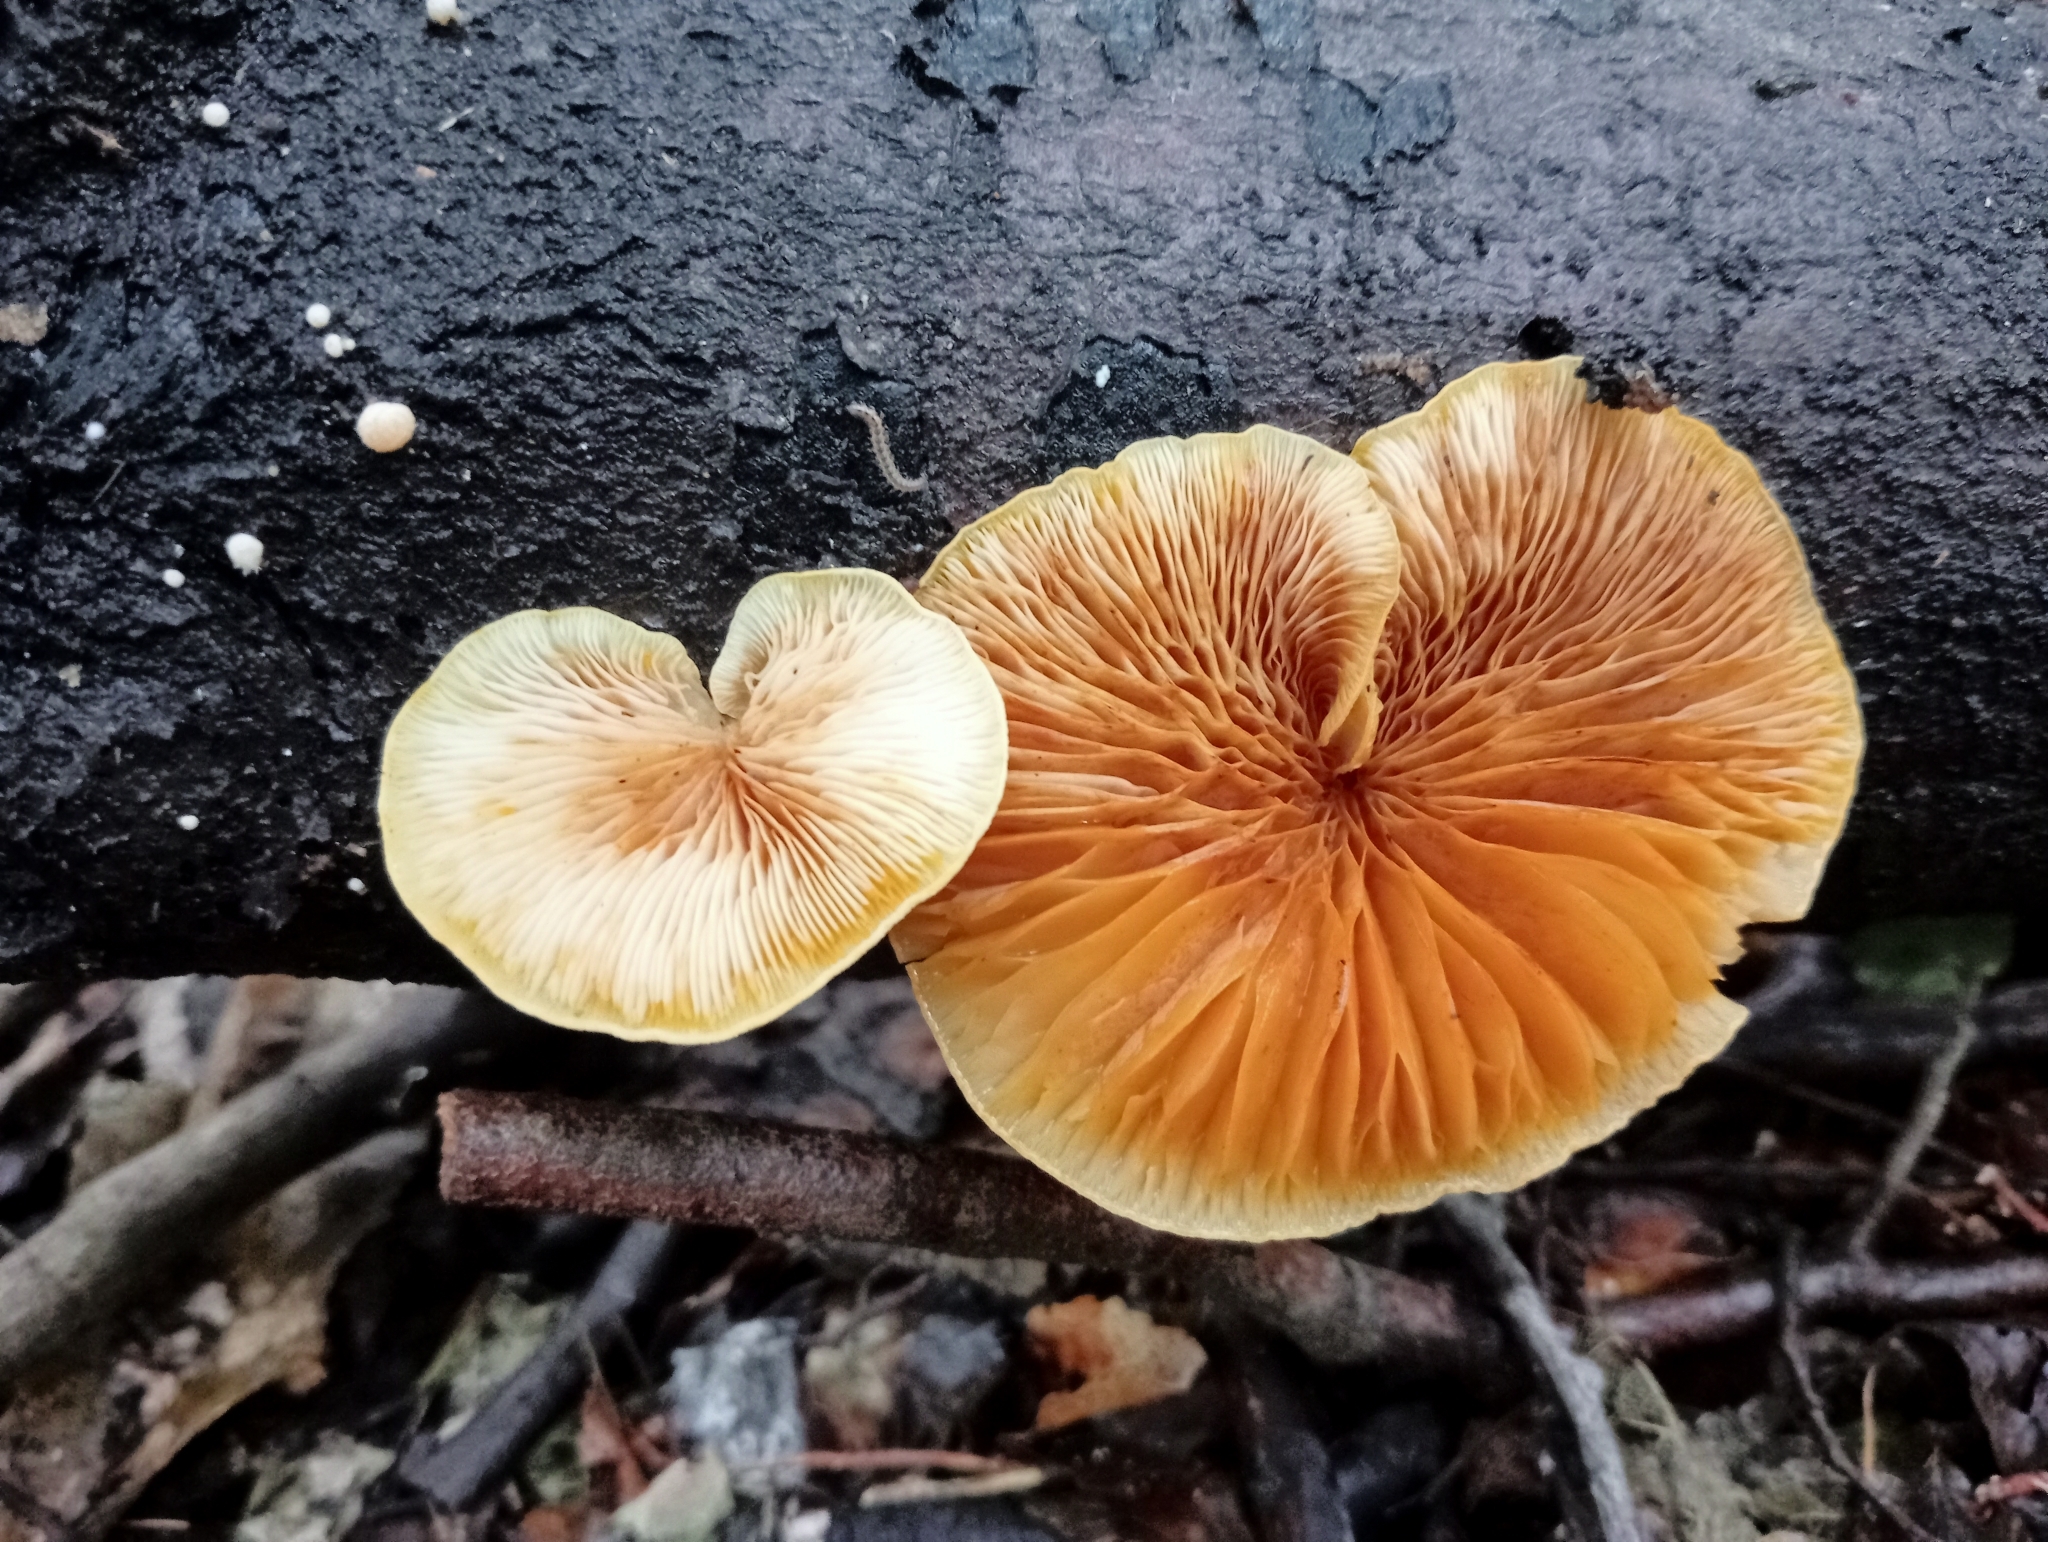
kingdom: Fungi
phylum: Basidiomycota
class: Agaricomycetes
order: Agaricales
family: Crepidotaceae
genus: Crepidotus
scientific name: Crepidotus praecipuus
